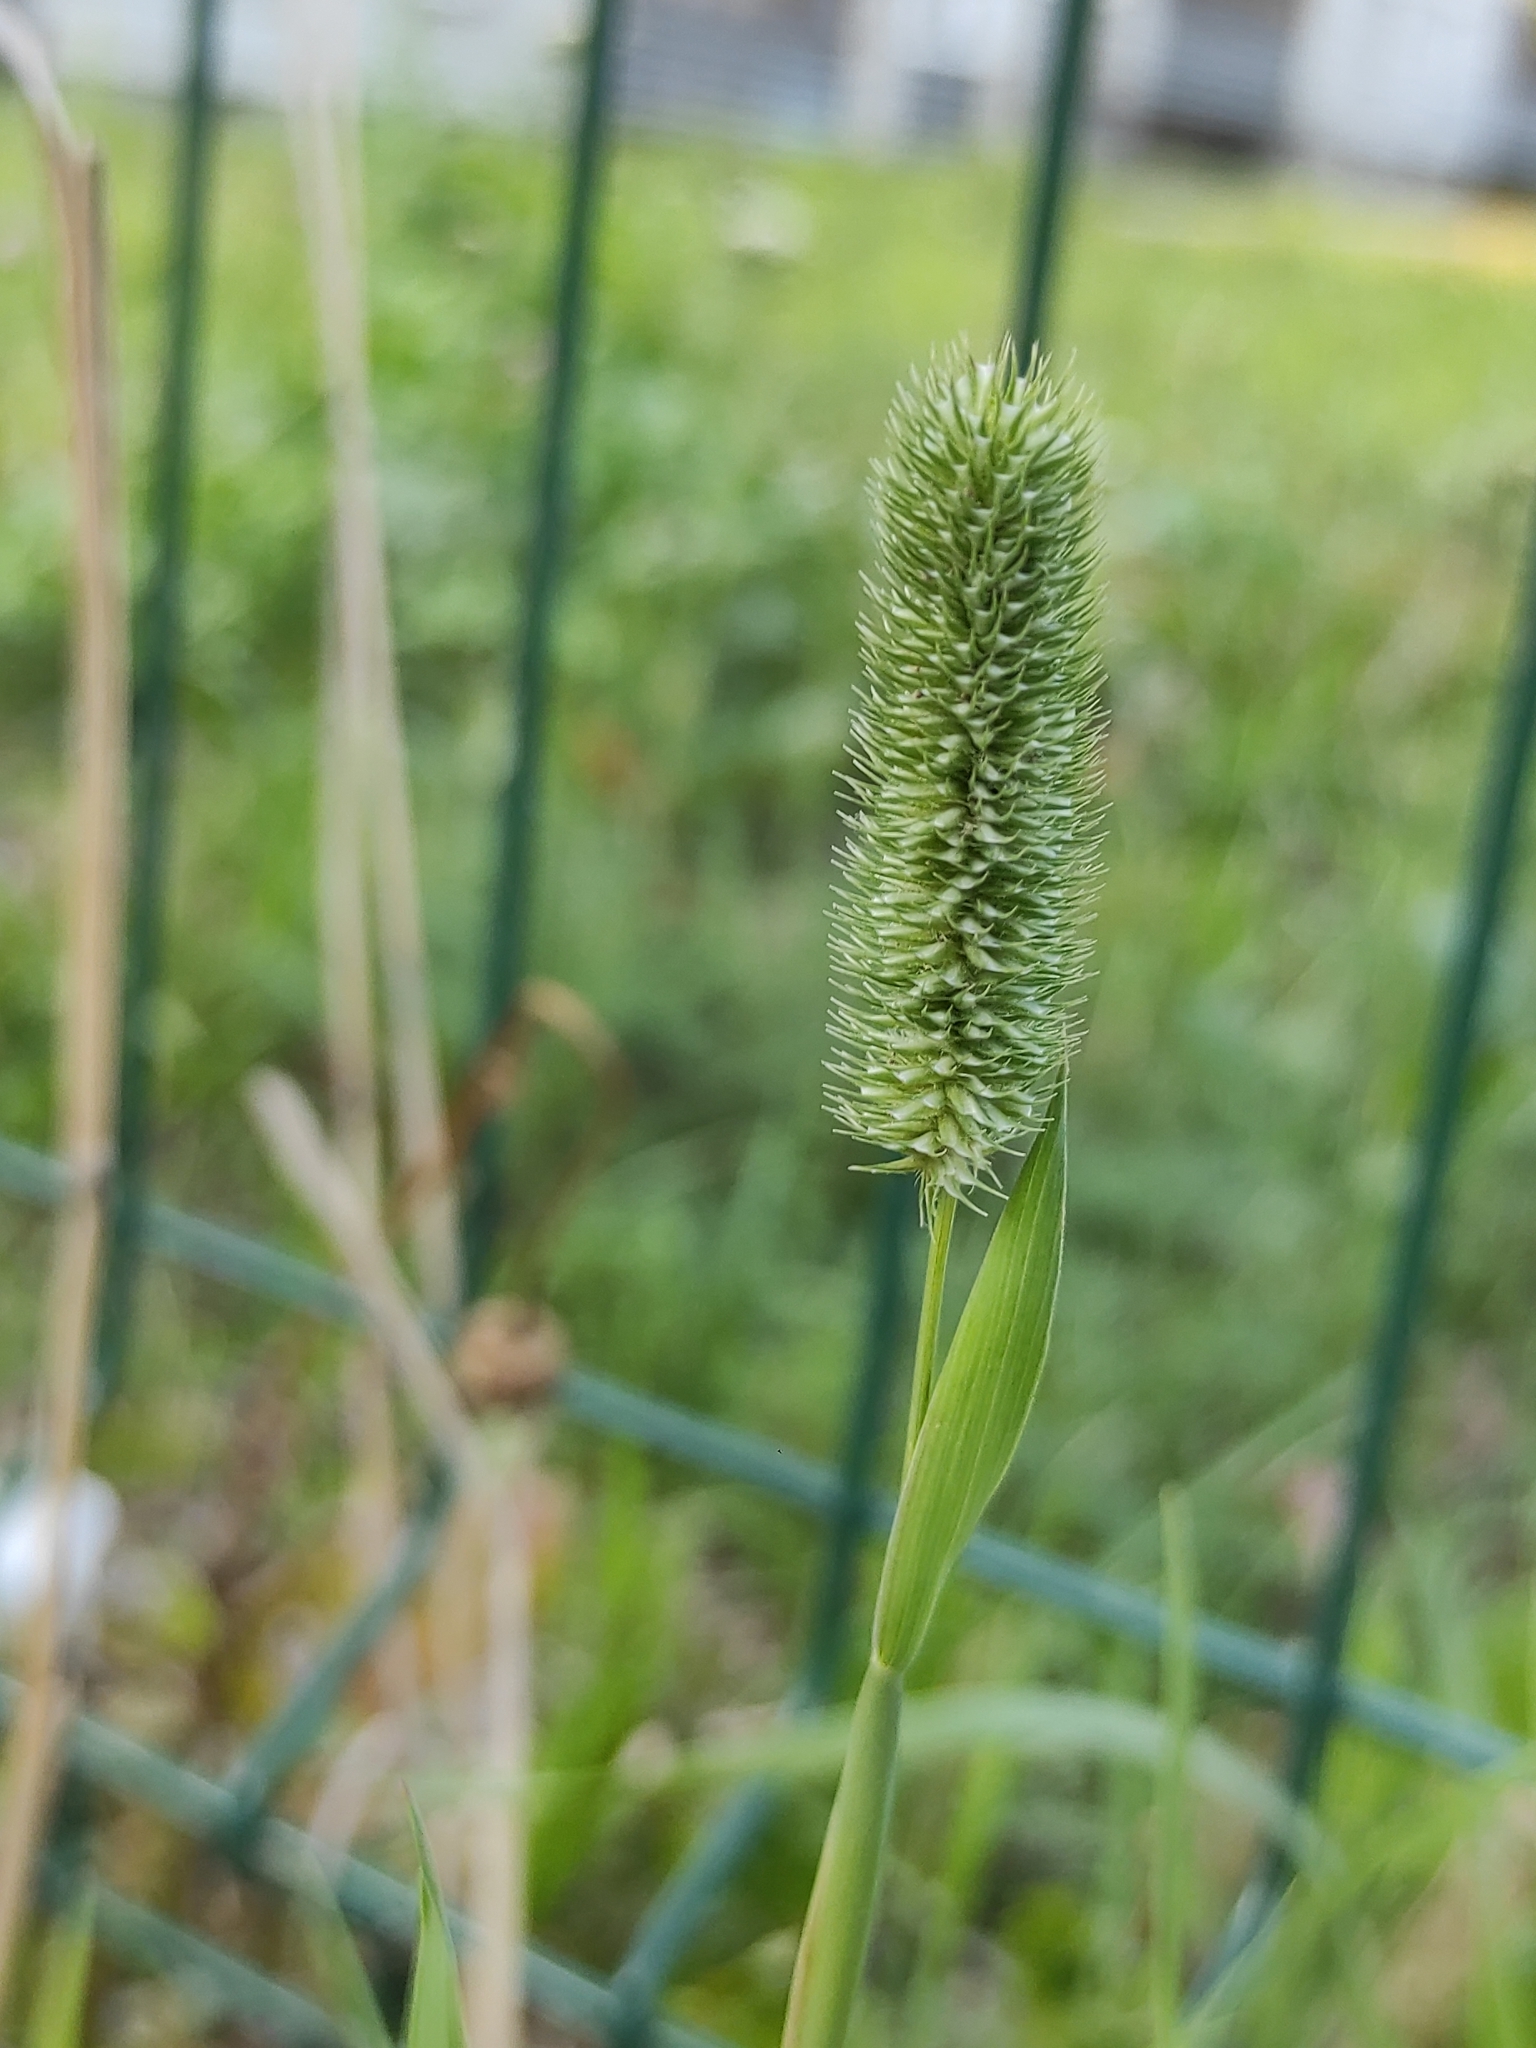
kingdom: Plantae
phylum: Tracheophyta
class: Liliopsida
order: Poales
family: Poaceae
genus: Phleum
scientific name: Phleum pratense
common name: Timothy grass
